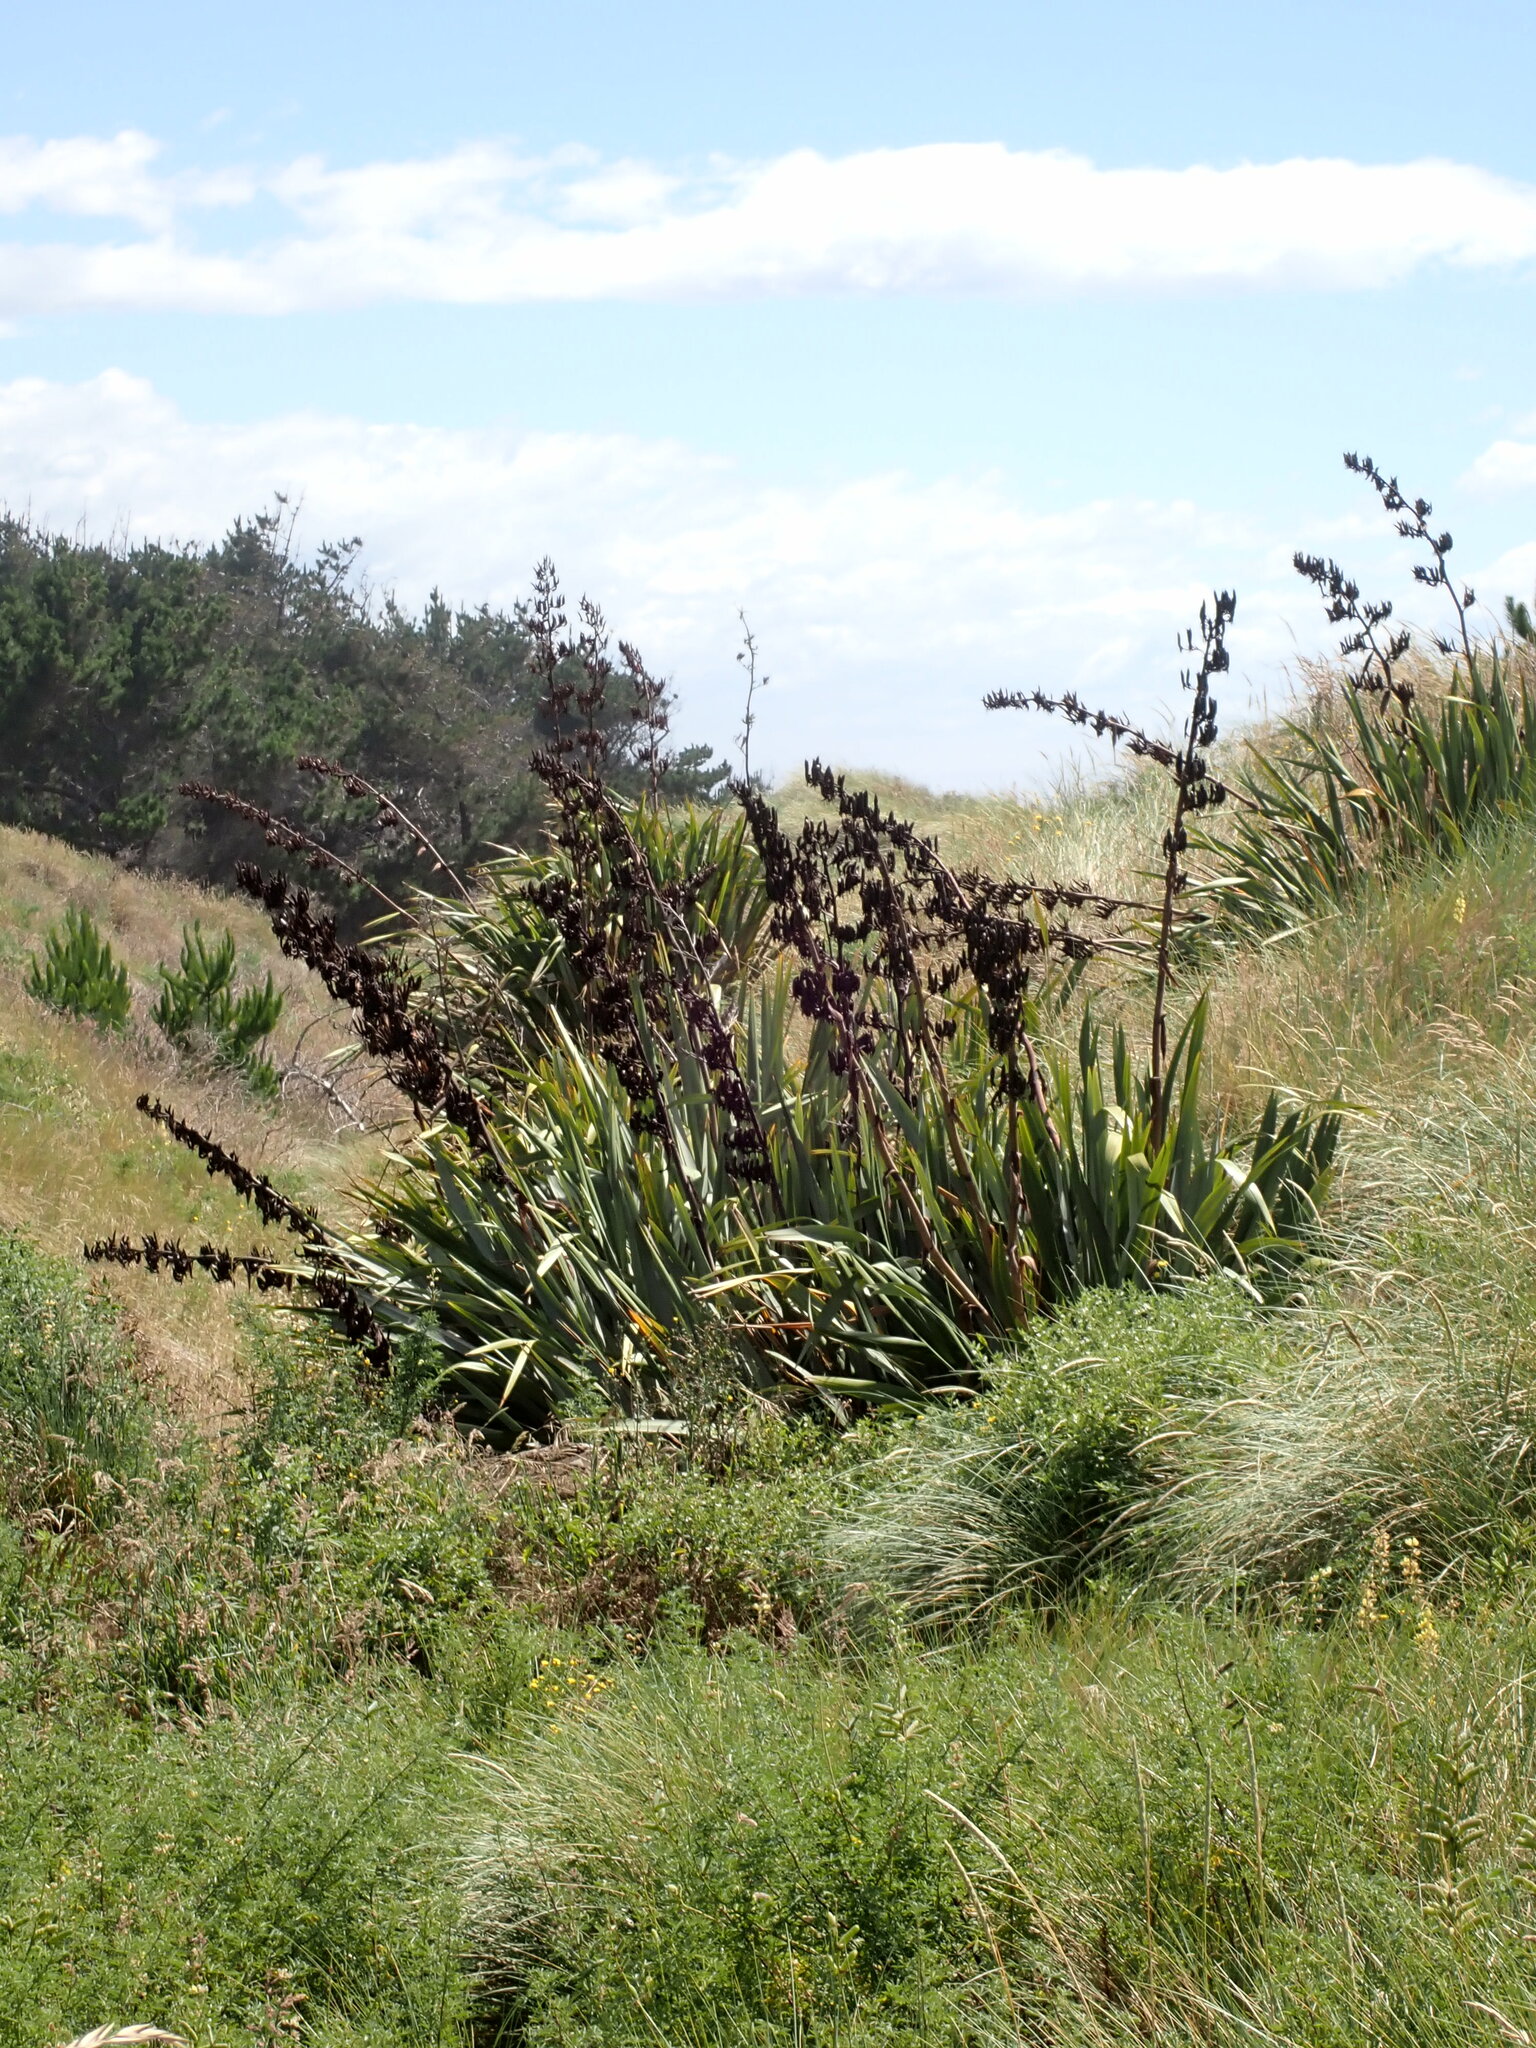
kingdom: Plantae
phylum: Tracheophyta
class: Liliopsida
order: Asparagales
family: Asphodelaceae
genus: Phormium
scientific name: Phormium tenax
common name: New zealand flax
